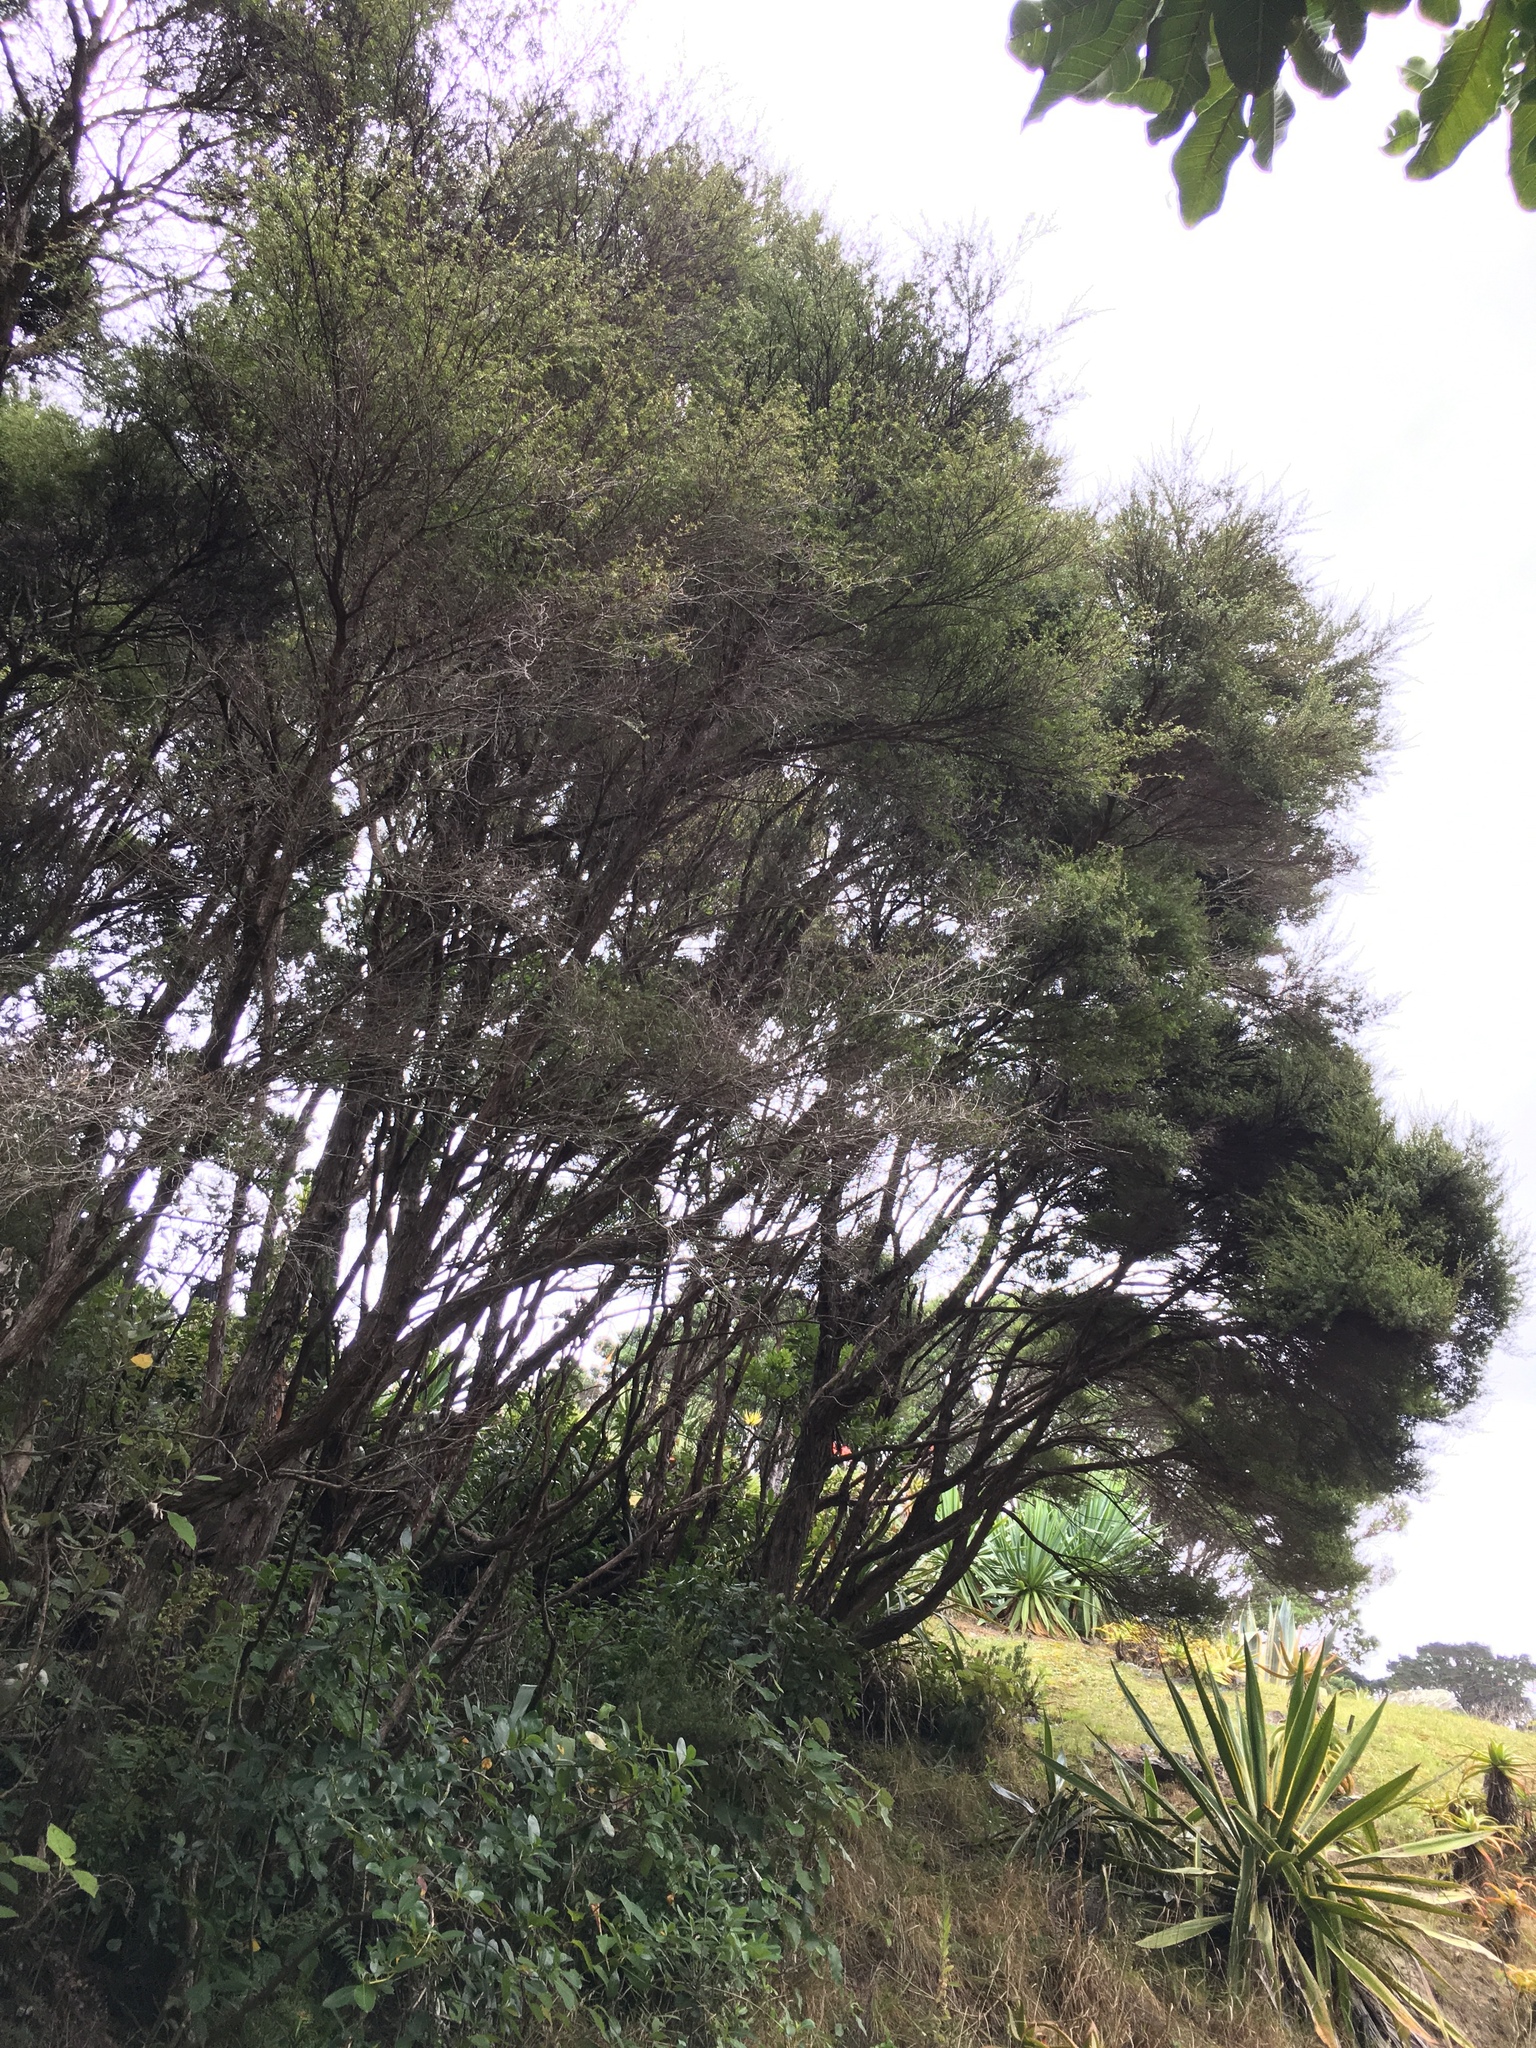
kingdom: Plantae
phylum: Tracheophyta
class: Magnoliopsida
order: Myrtales
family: Myrtaceae
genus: Leptospermum
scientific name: Leptospermum scoparium
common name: Broom tea-tree
